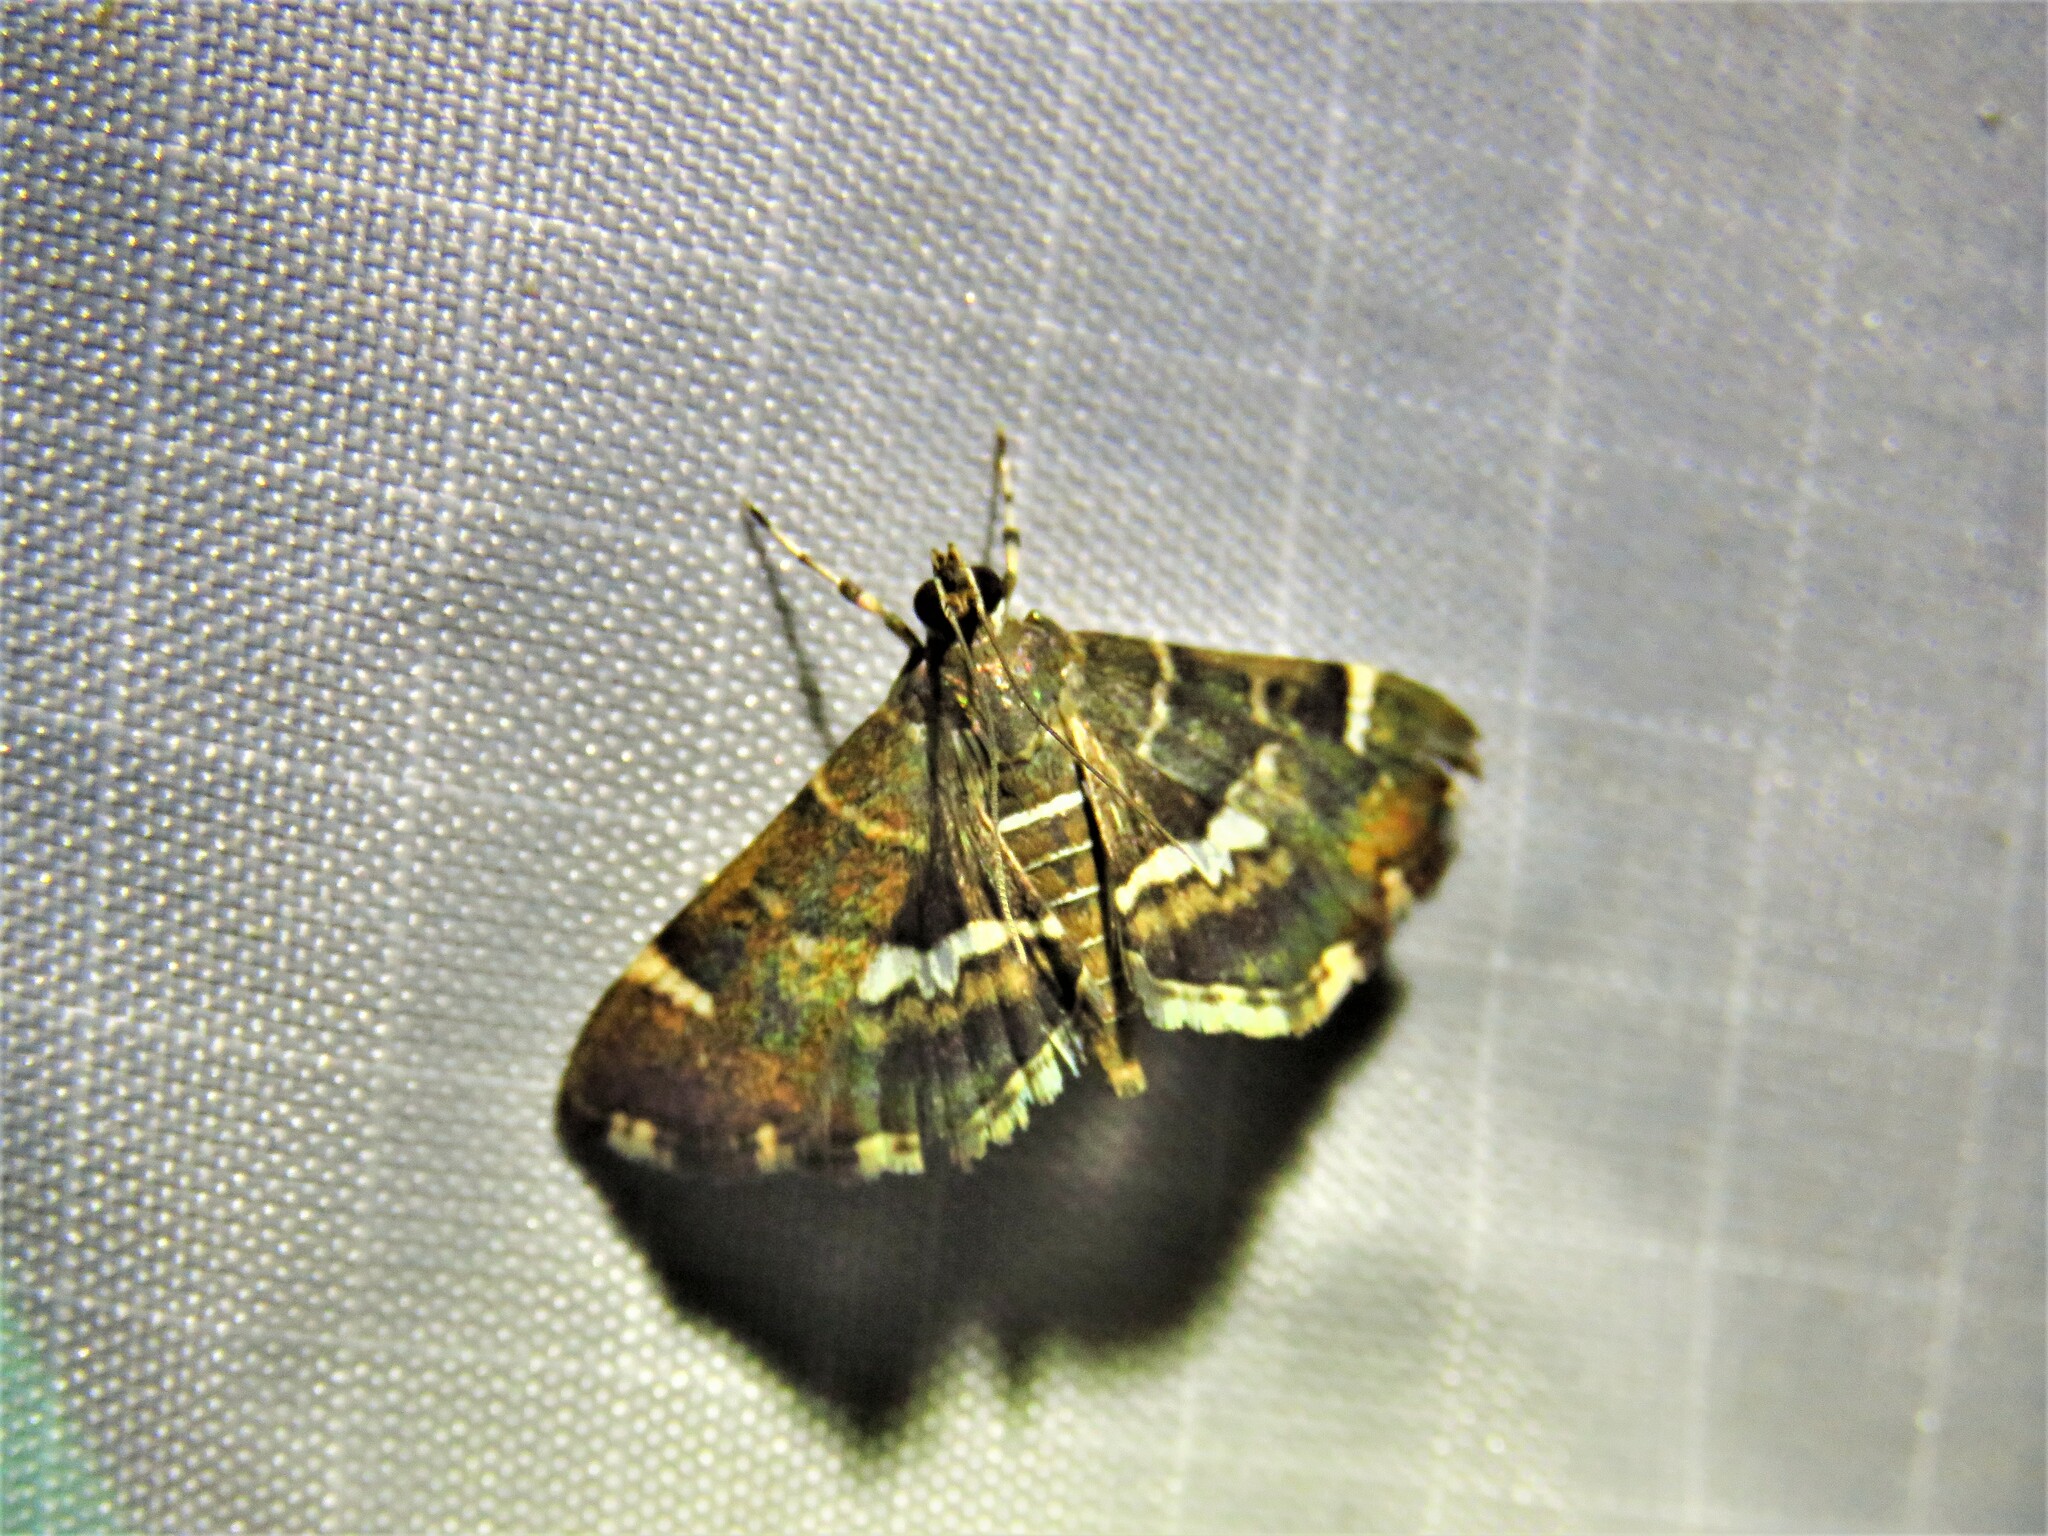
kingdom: Animalia
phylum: Arthropoda
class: Insecta
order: Lepidoptera
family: Crambidae
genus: Hymenia
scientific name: Hymenia perspectalis
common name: Spotted beet webworm
